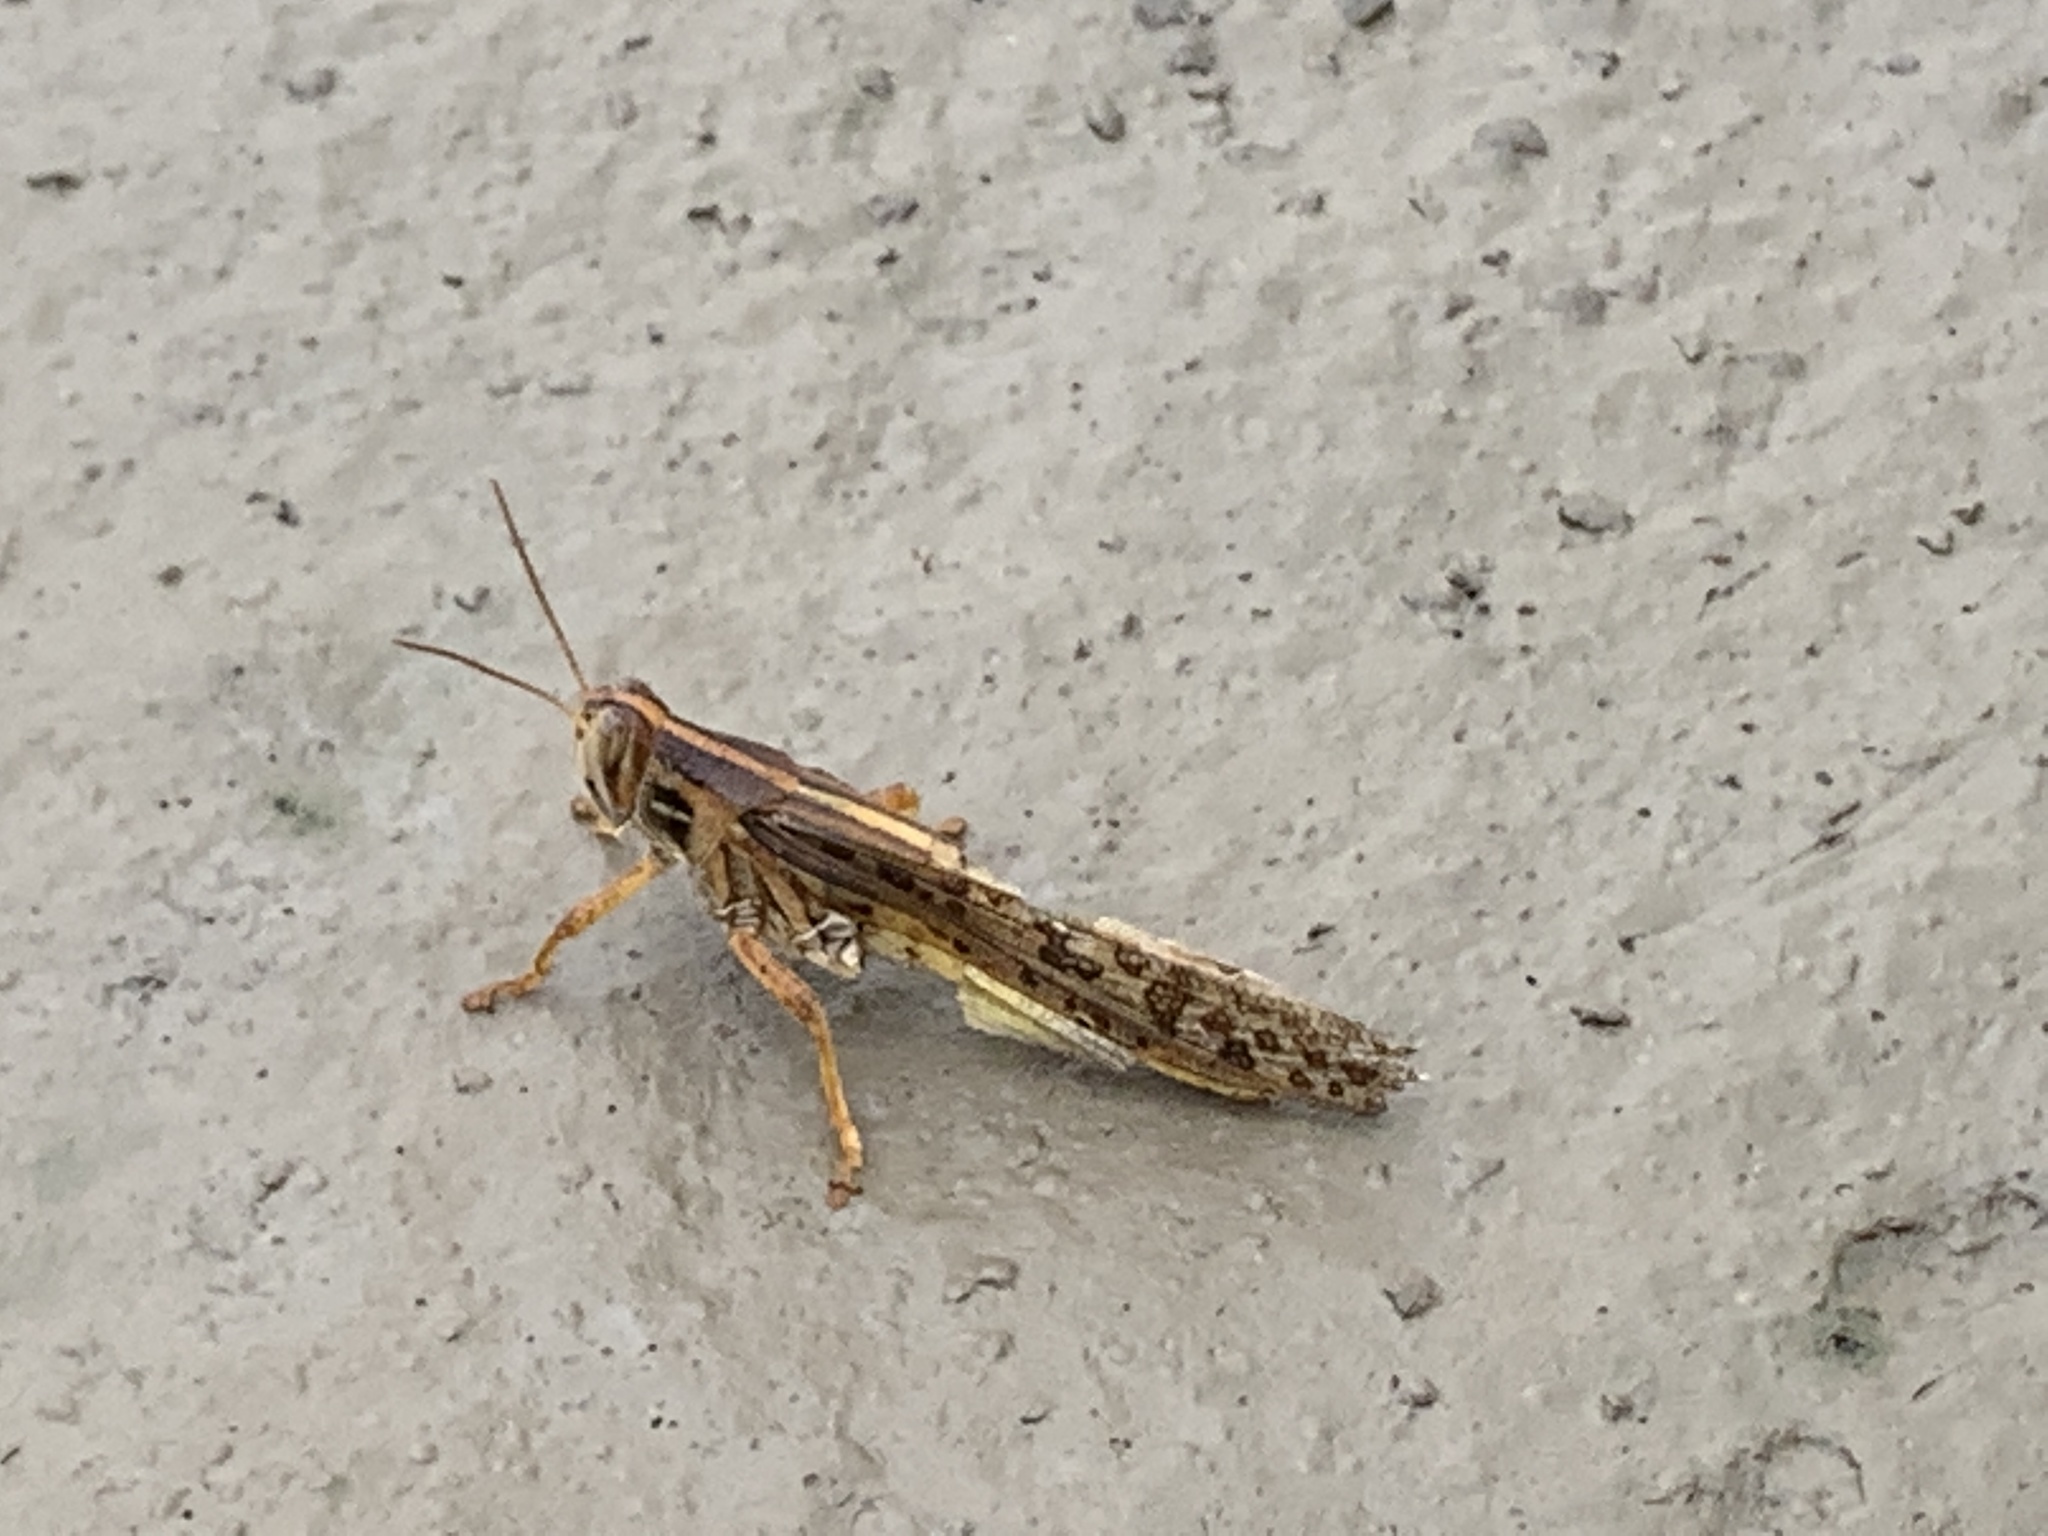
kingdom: Animalia
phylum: Arthropoda
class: Insecta
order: Orthoptera
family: Acrididae
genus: Schistocerca
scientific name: Schistocerca americana
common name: American bird locust
